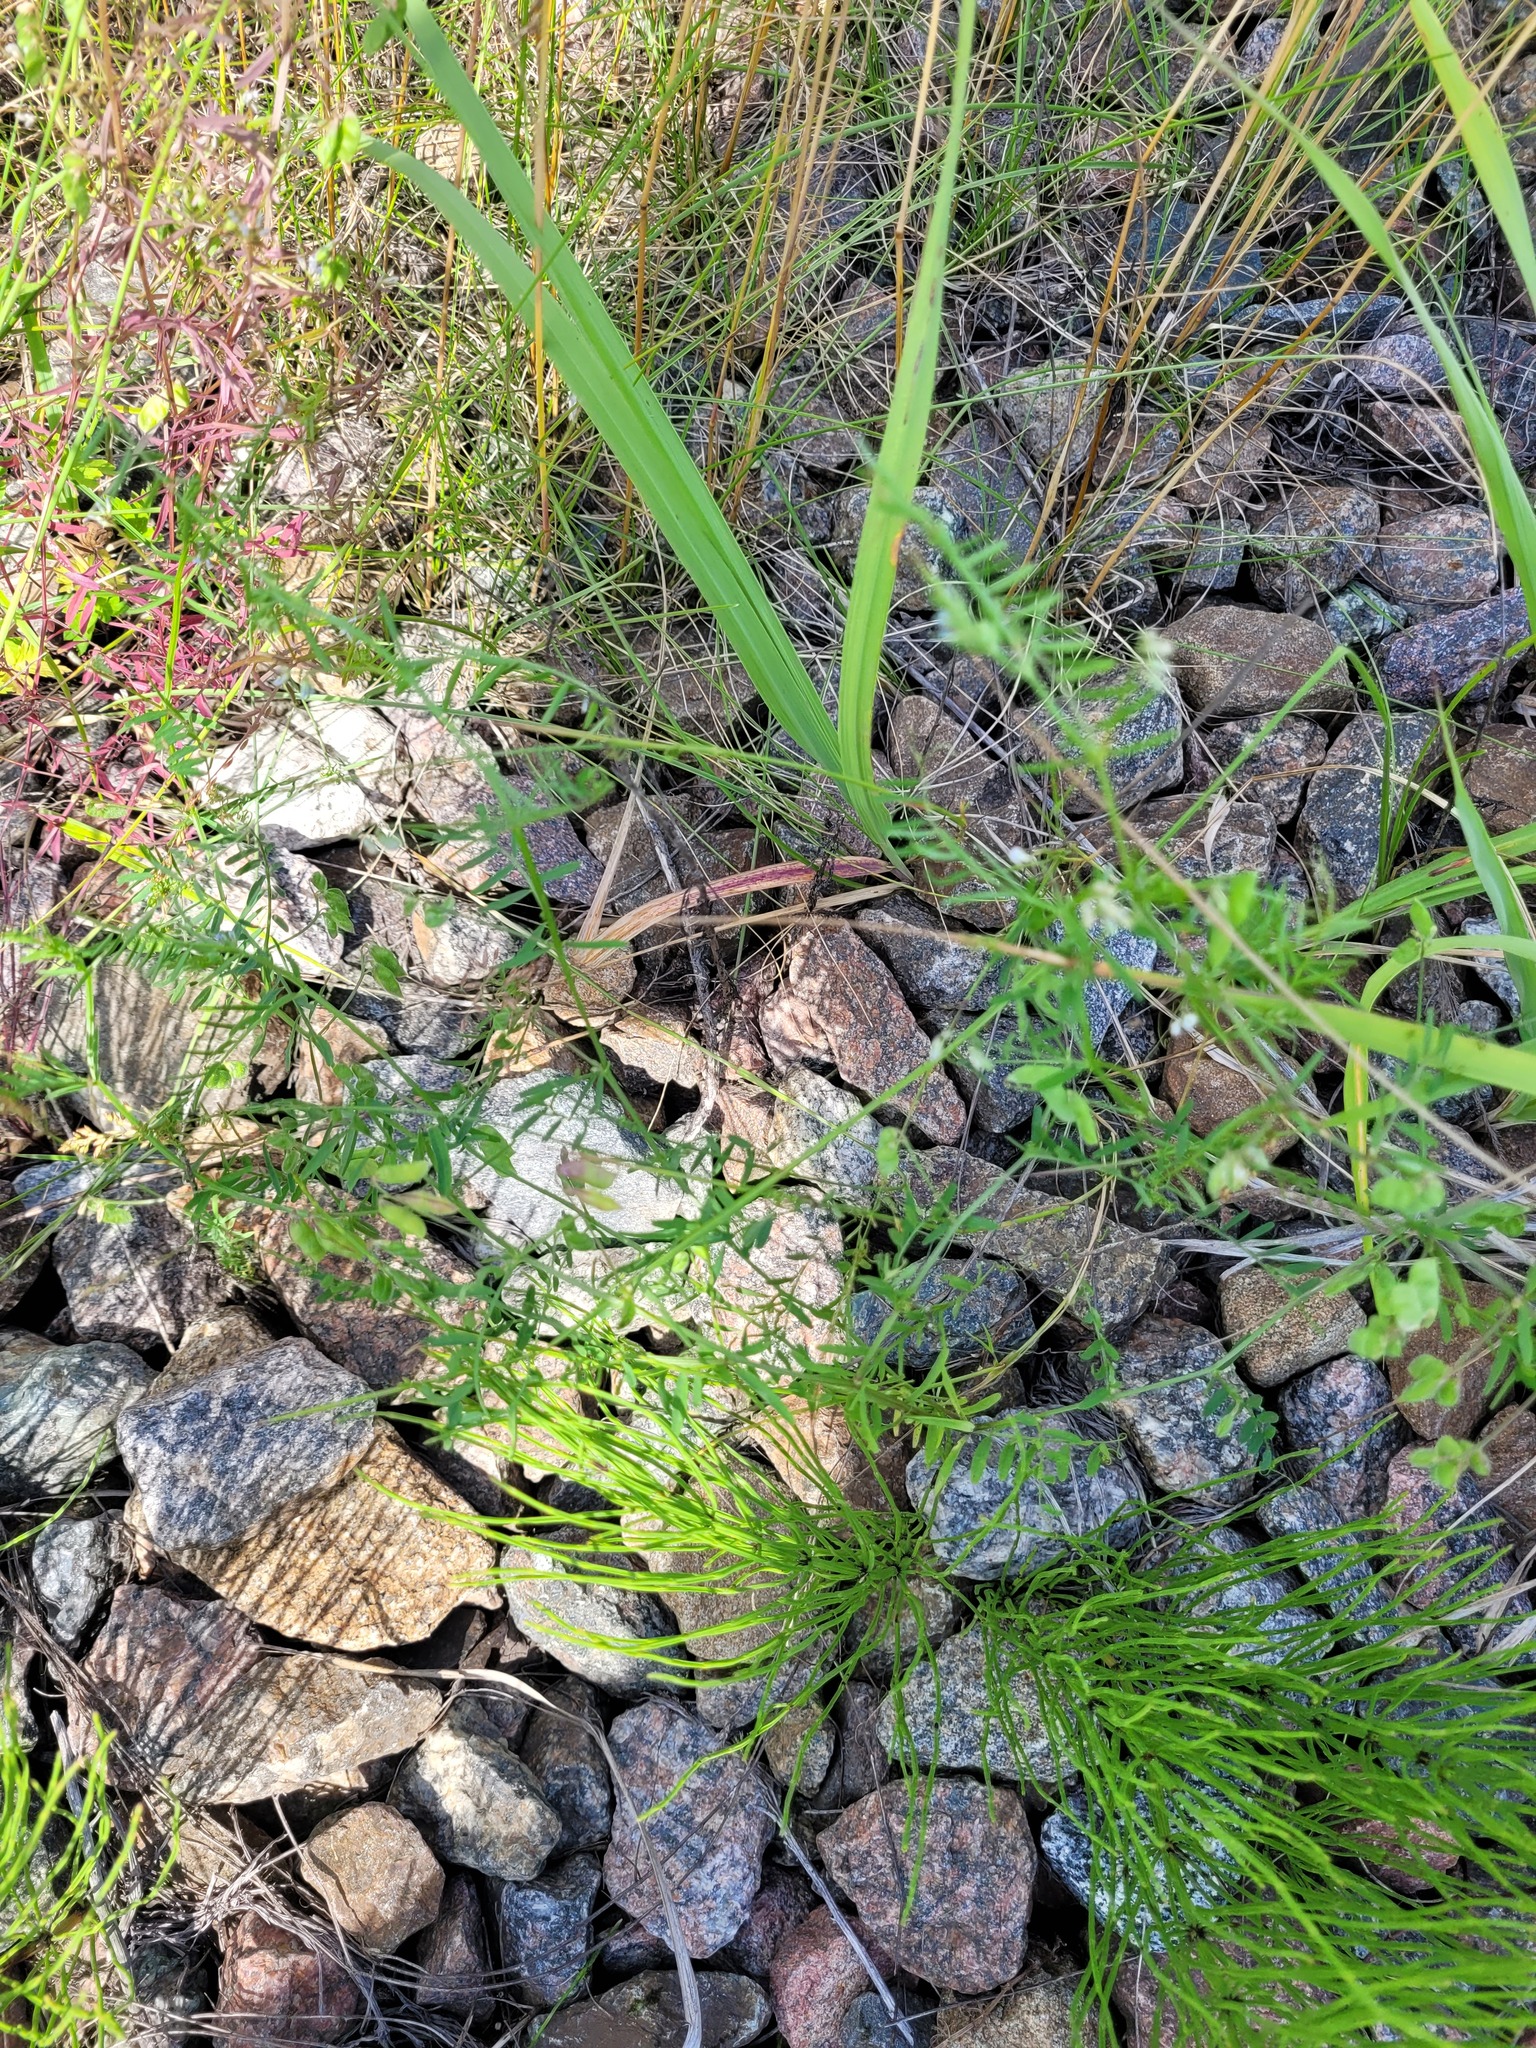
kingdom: Plantae
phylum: Tracheophyta
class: Magnoliopsida
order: Fabales
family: Fabaceae
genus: Vicia
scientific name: Vicia hirsuta
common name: Tiny vetch
